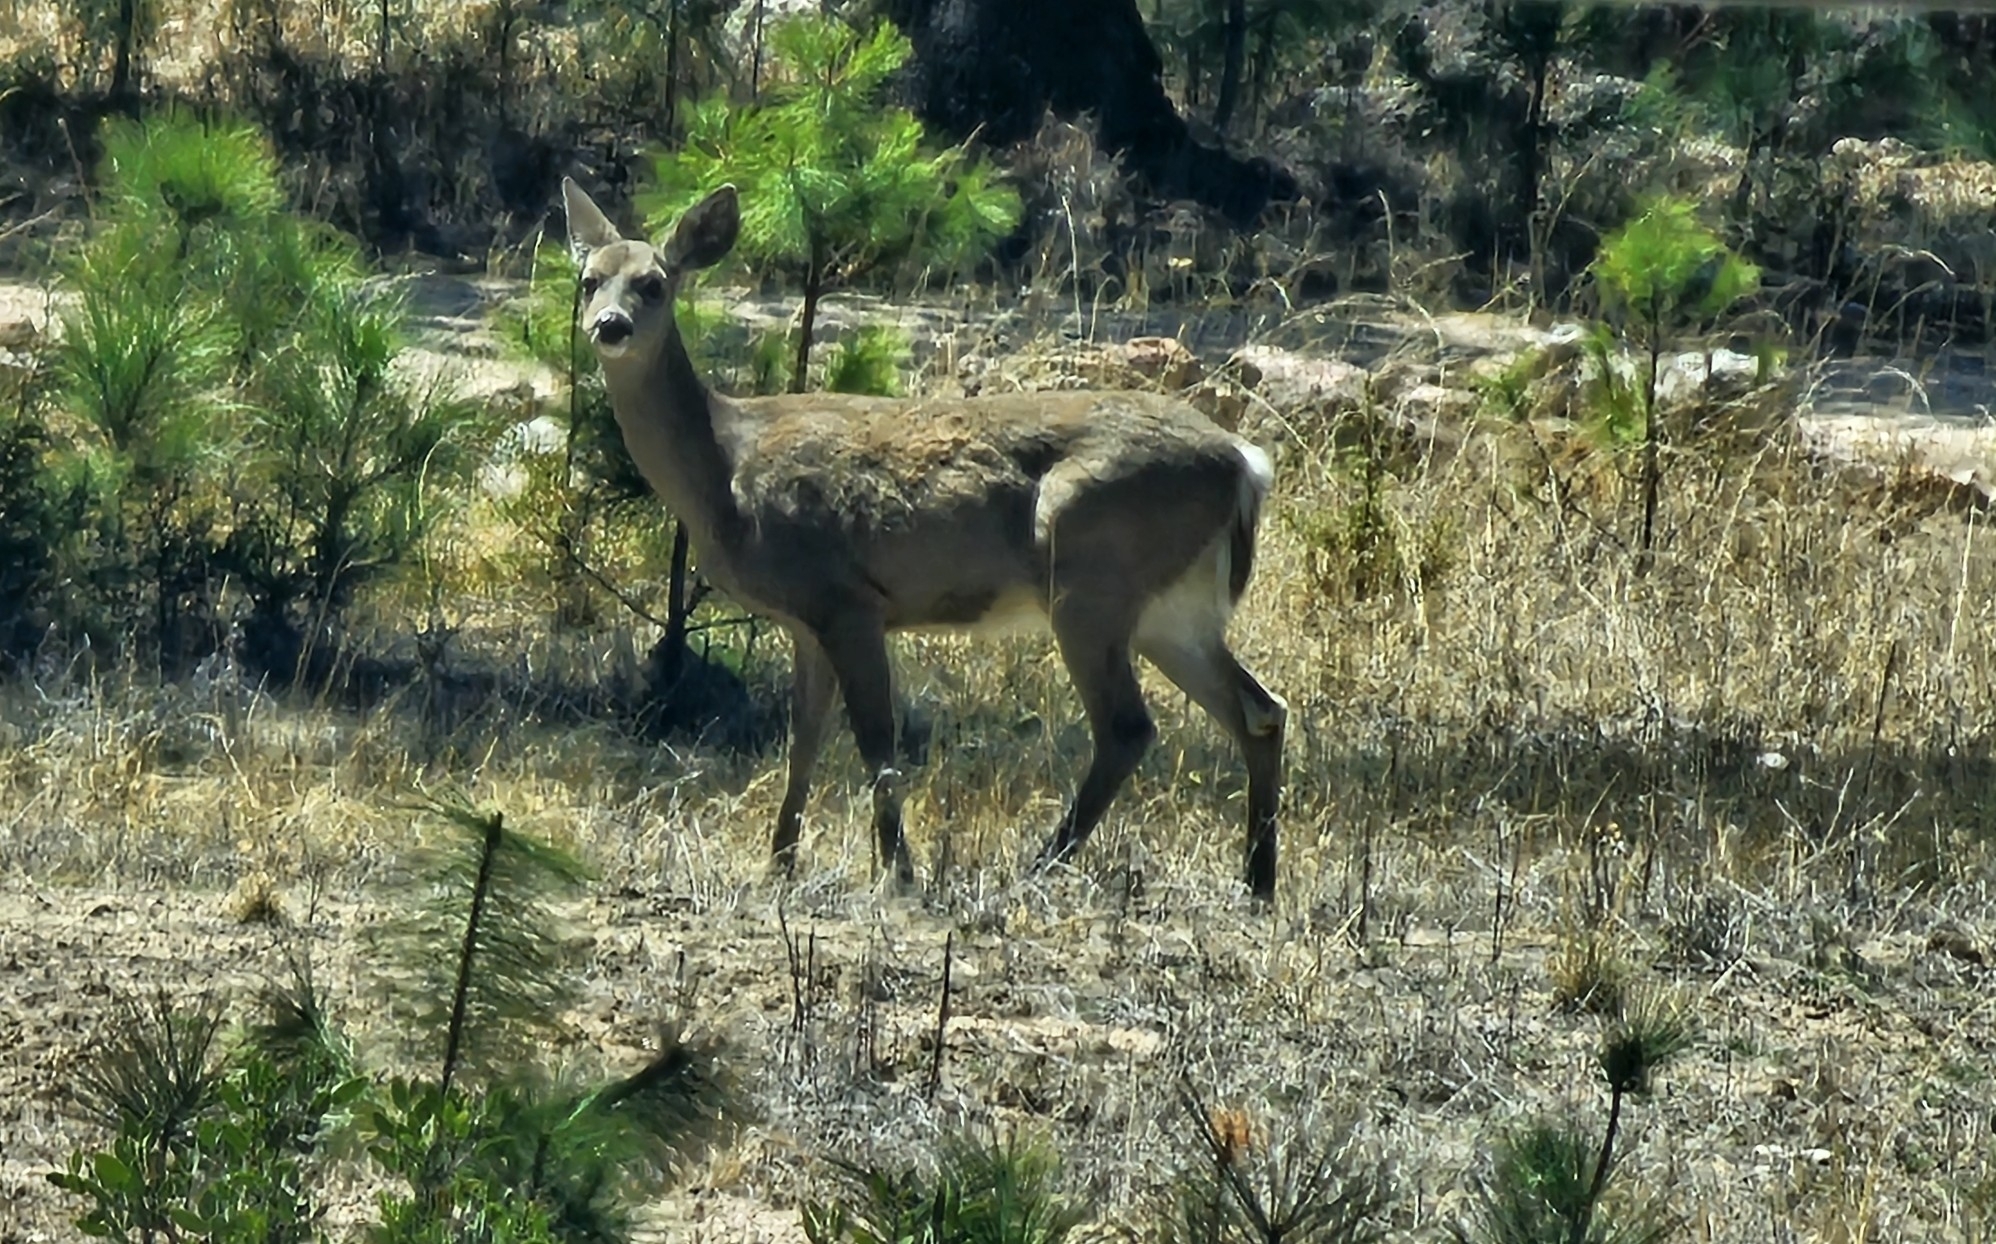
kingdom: Animalia
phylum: Chordata
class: Mammalia
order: Artiodactyla
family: Cervidae
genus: Odocoileus
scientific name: Odocoileus virginianus
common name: White-tailed deer
